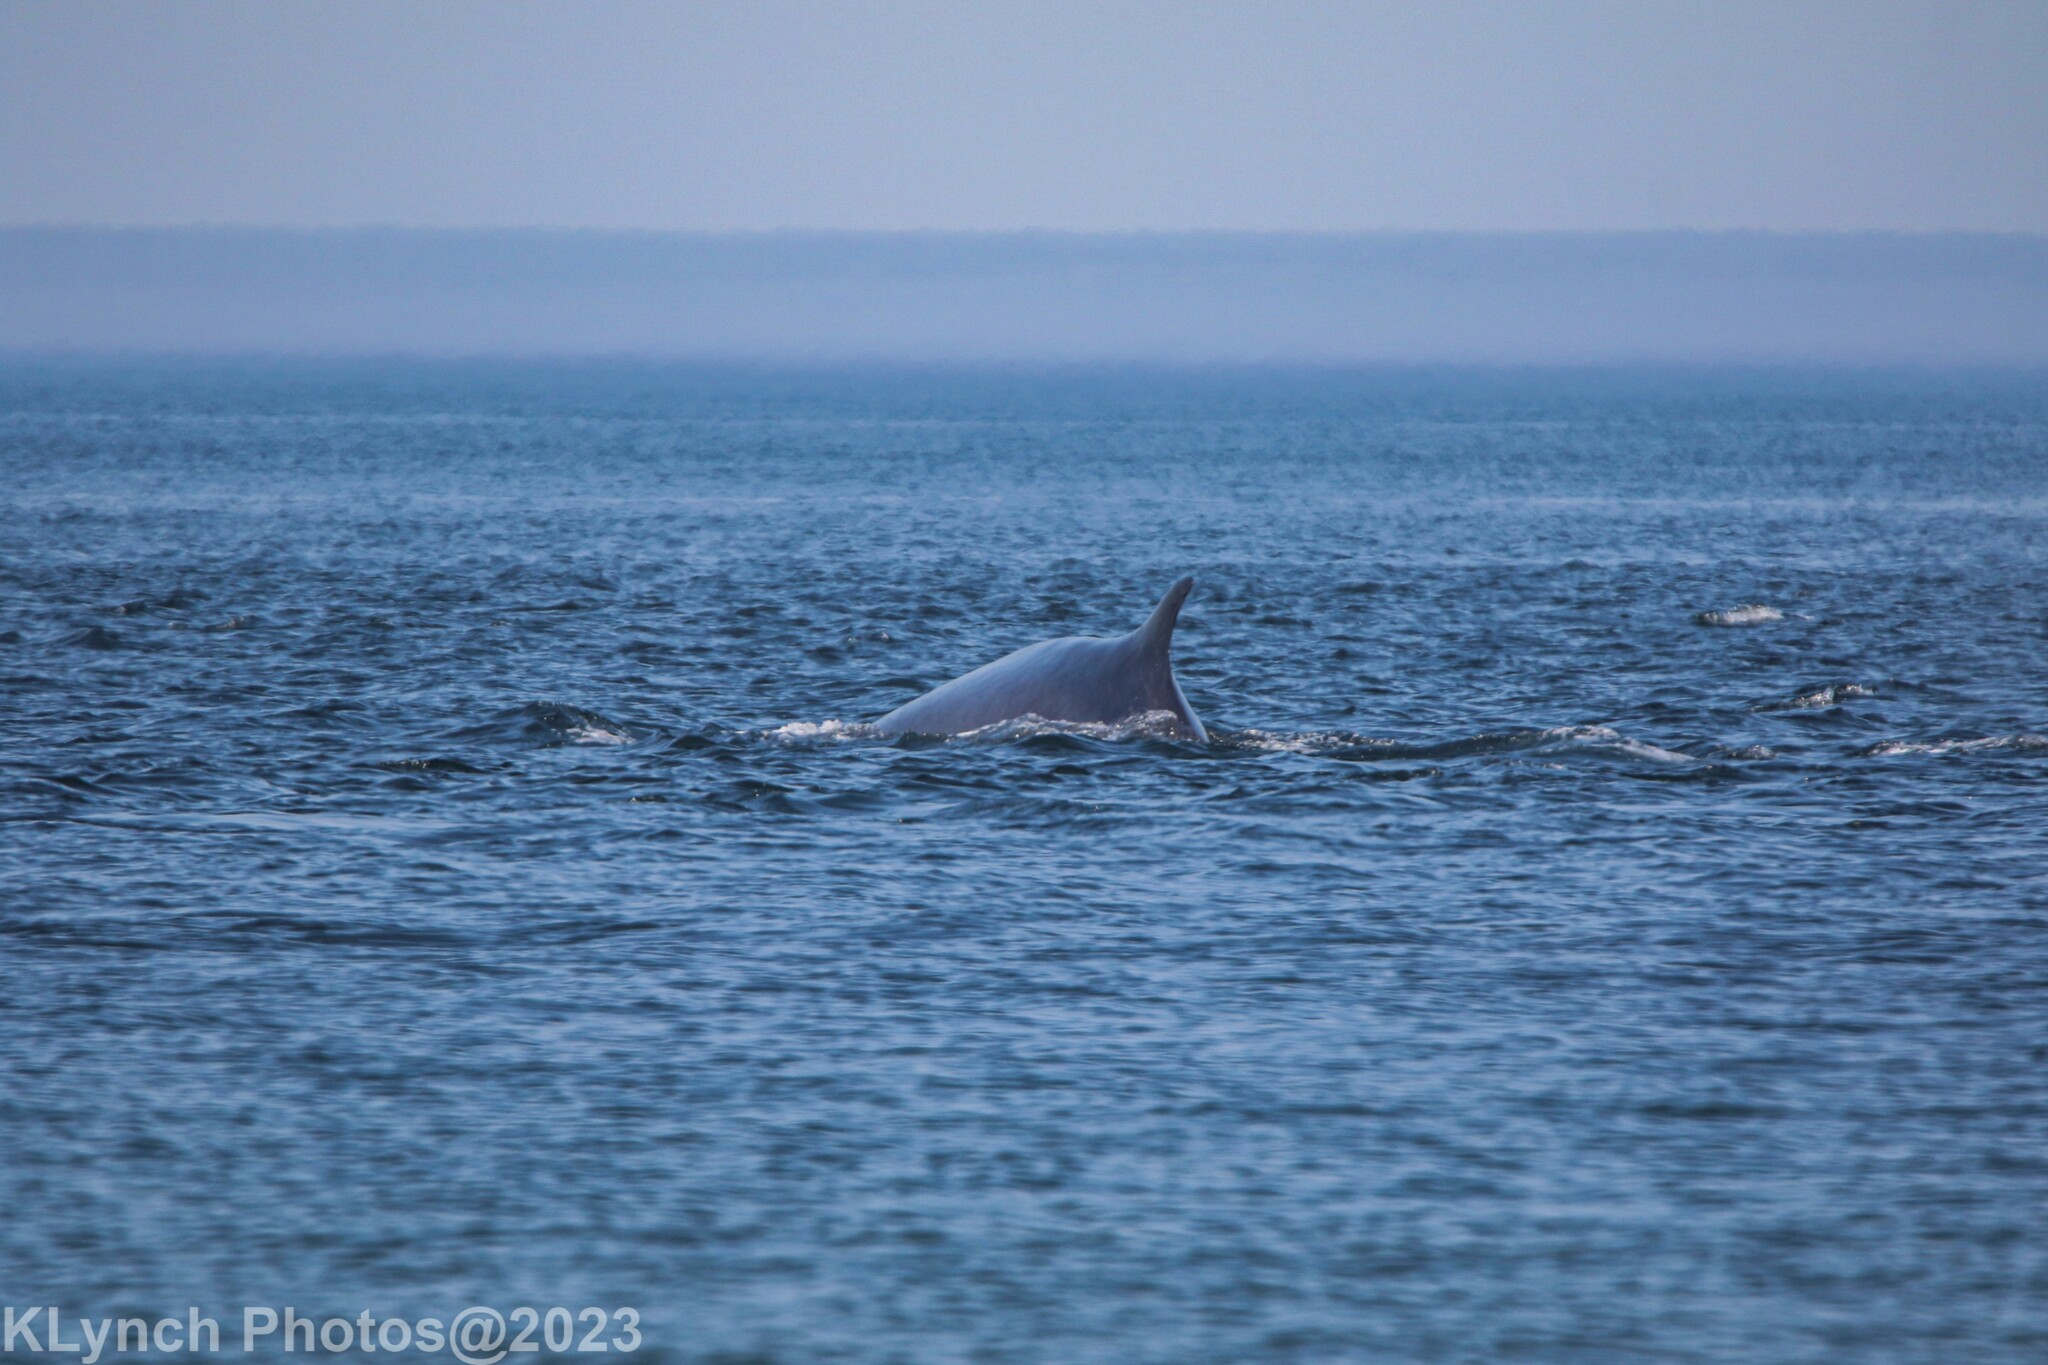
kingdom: Animalia
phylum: Chordata
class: Mammalia
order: Cetacea
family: Balaenopteridae
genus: Balaenoptera
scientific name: Balaenoptera physalus
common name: Fin whale
